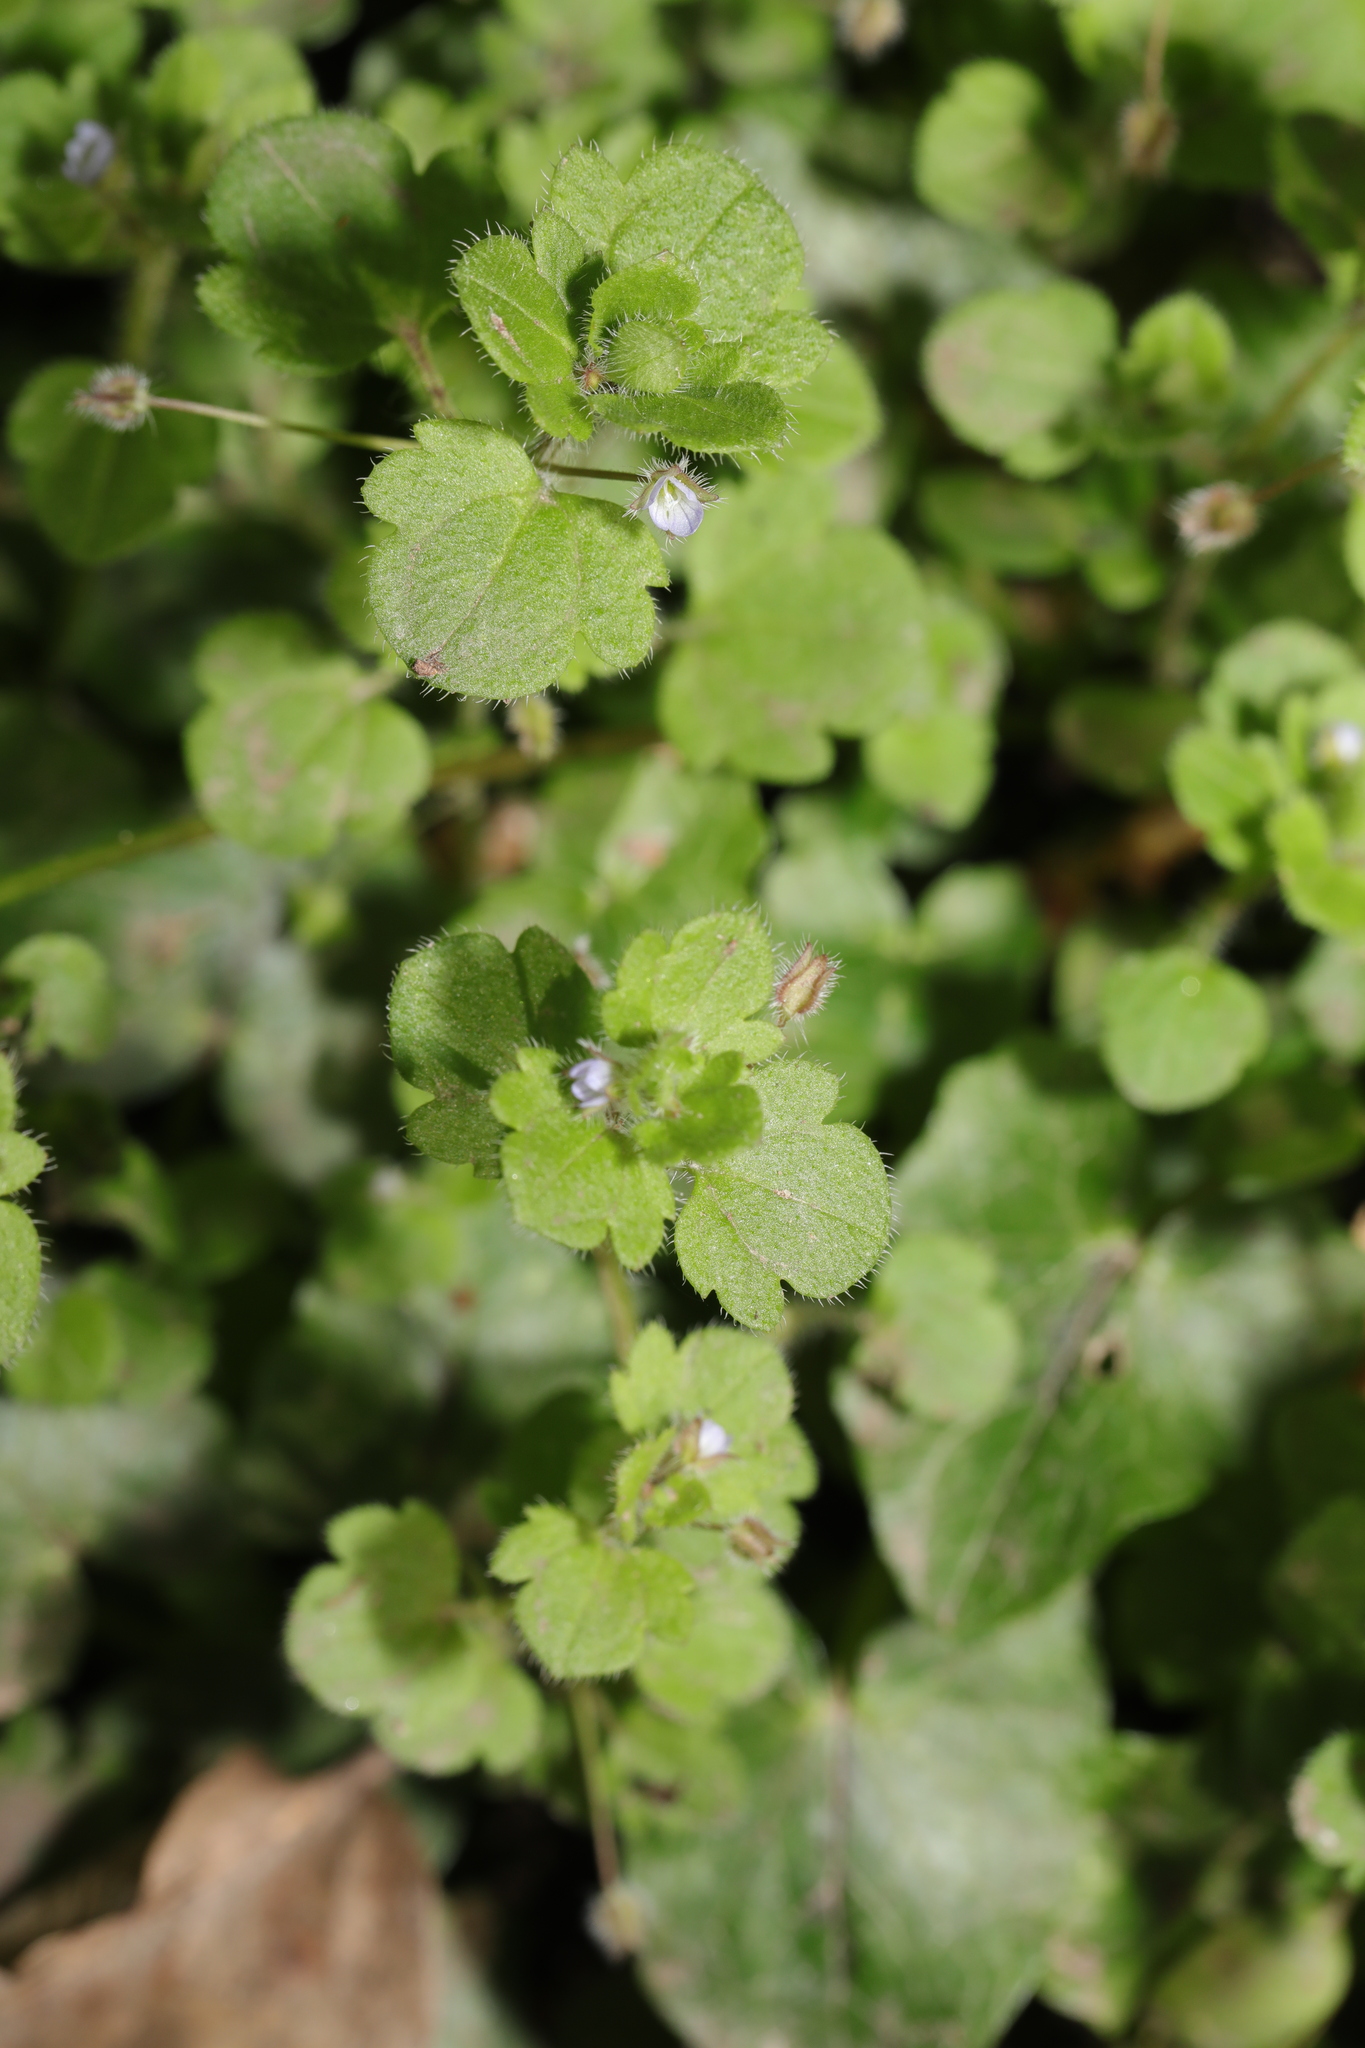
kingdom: Plantae
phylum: Tracheophyta
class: Magnoliopsida
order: Lamiales
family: Plantaginaceae
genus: Veronica
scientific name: Veronica sublobata
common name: False ivy-leaved speedwell
